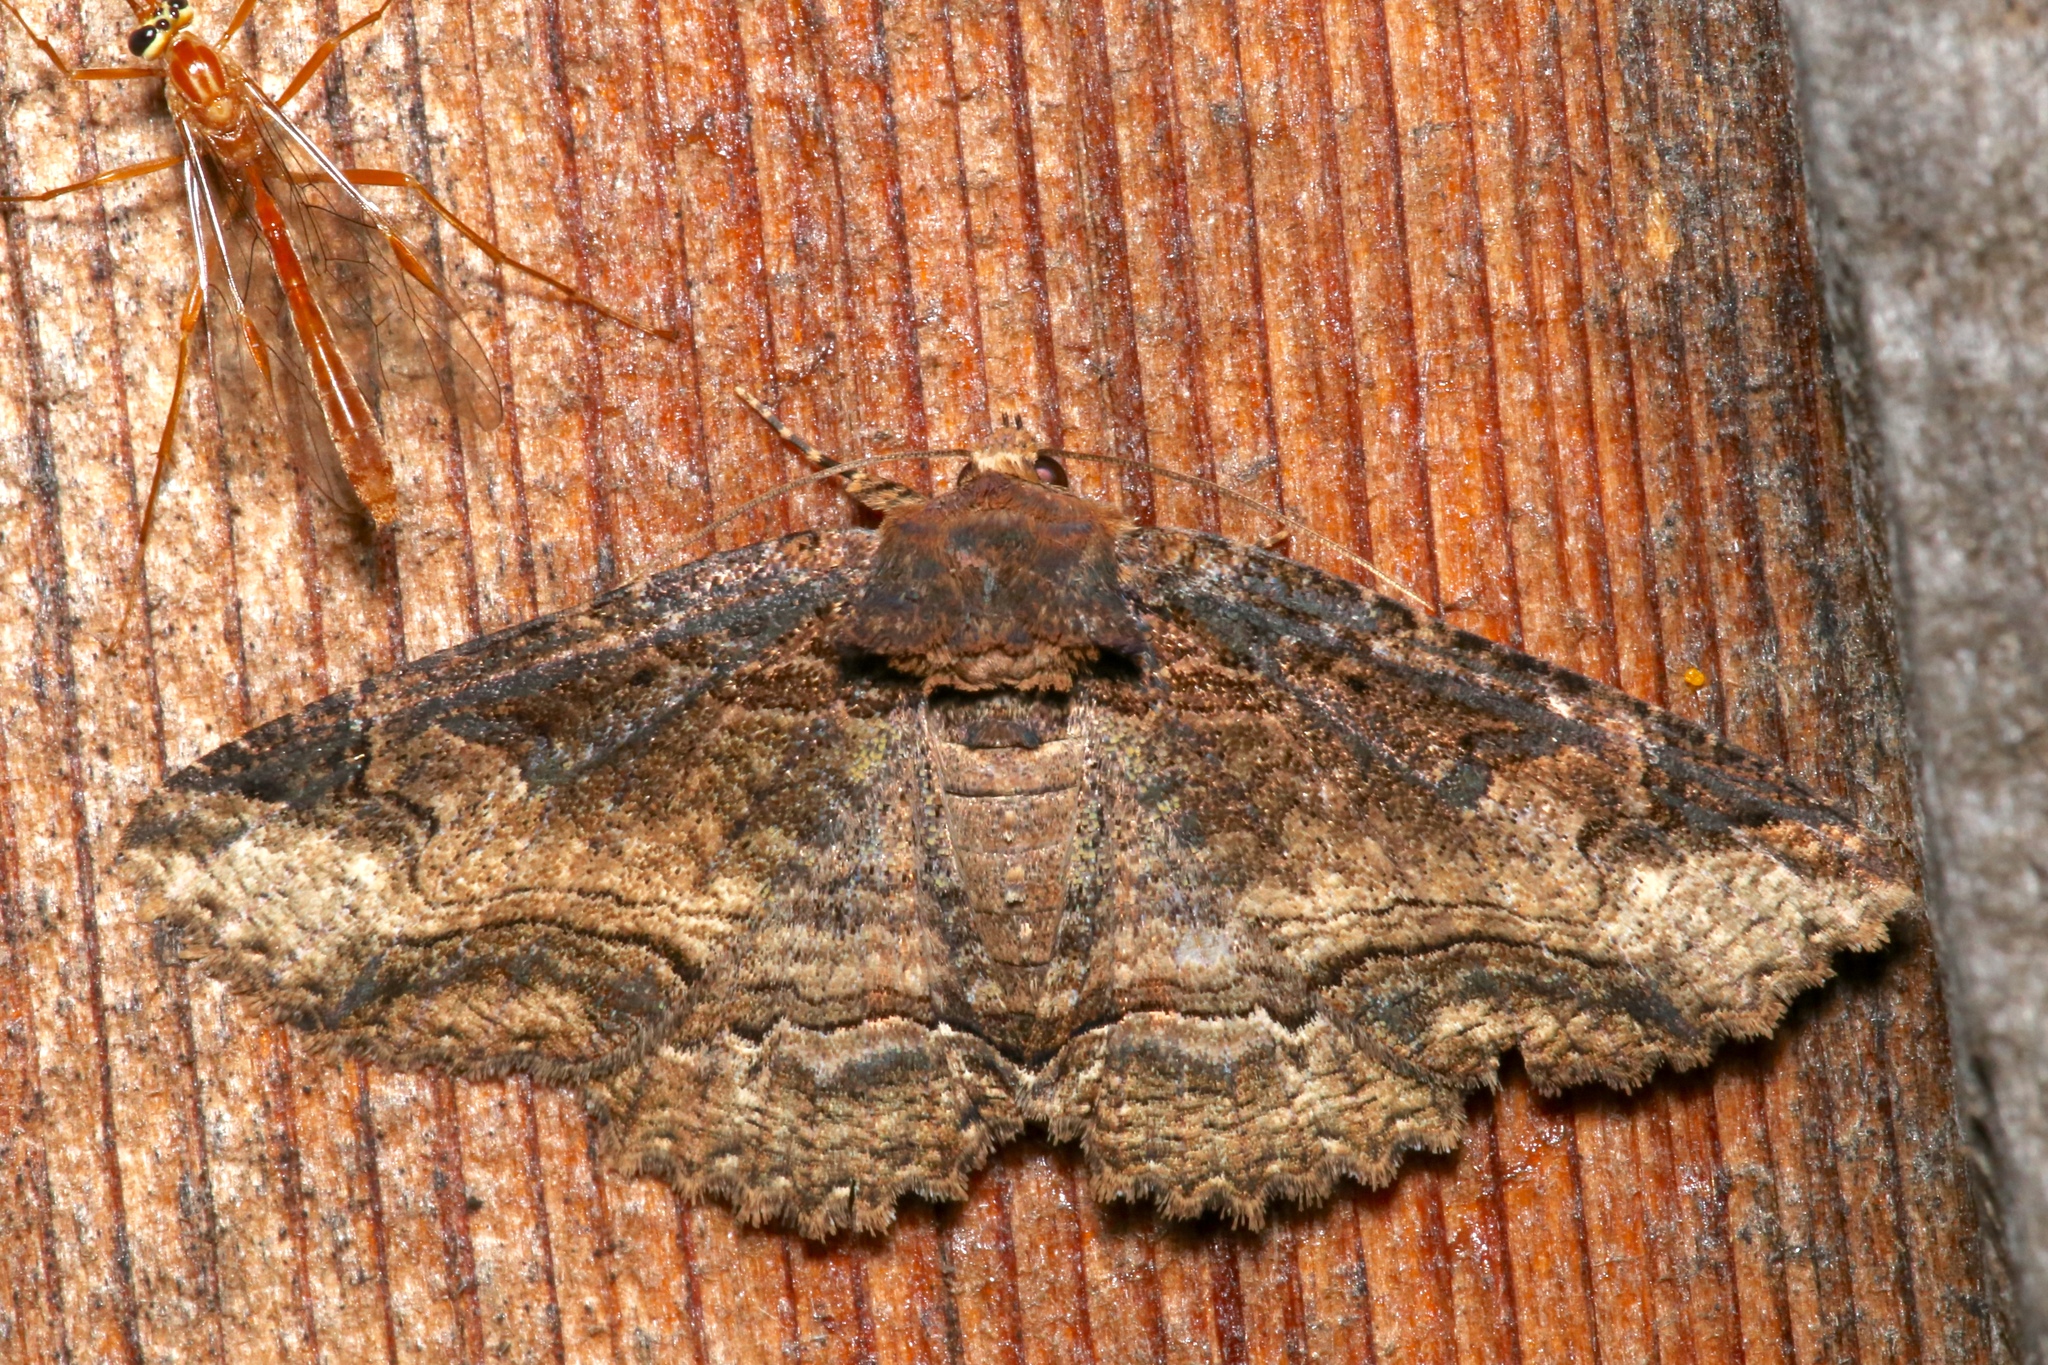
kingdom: Animalia
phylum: Arthropoda
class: Insecta
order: Lepidoptera
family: Erebidae
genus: Zale
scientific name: Zale minerea
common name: Colorful zale moth
